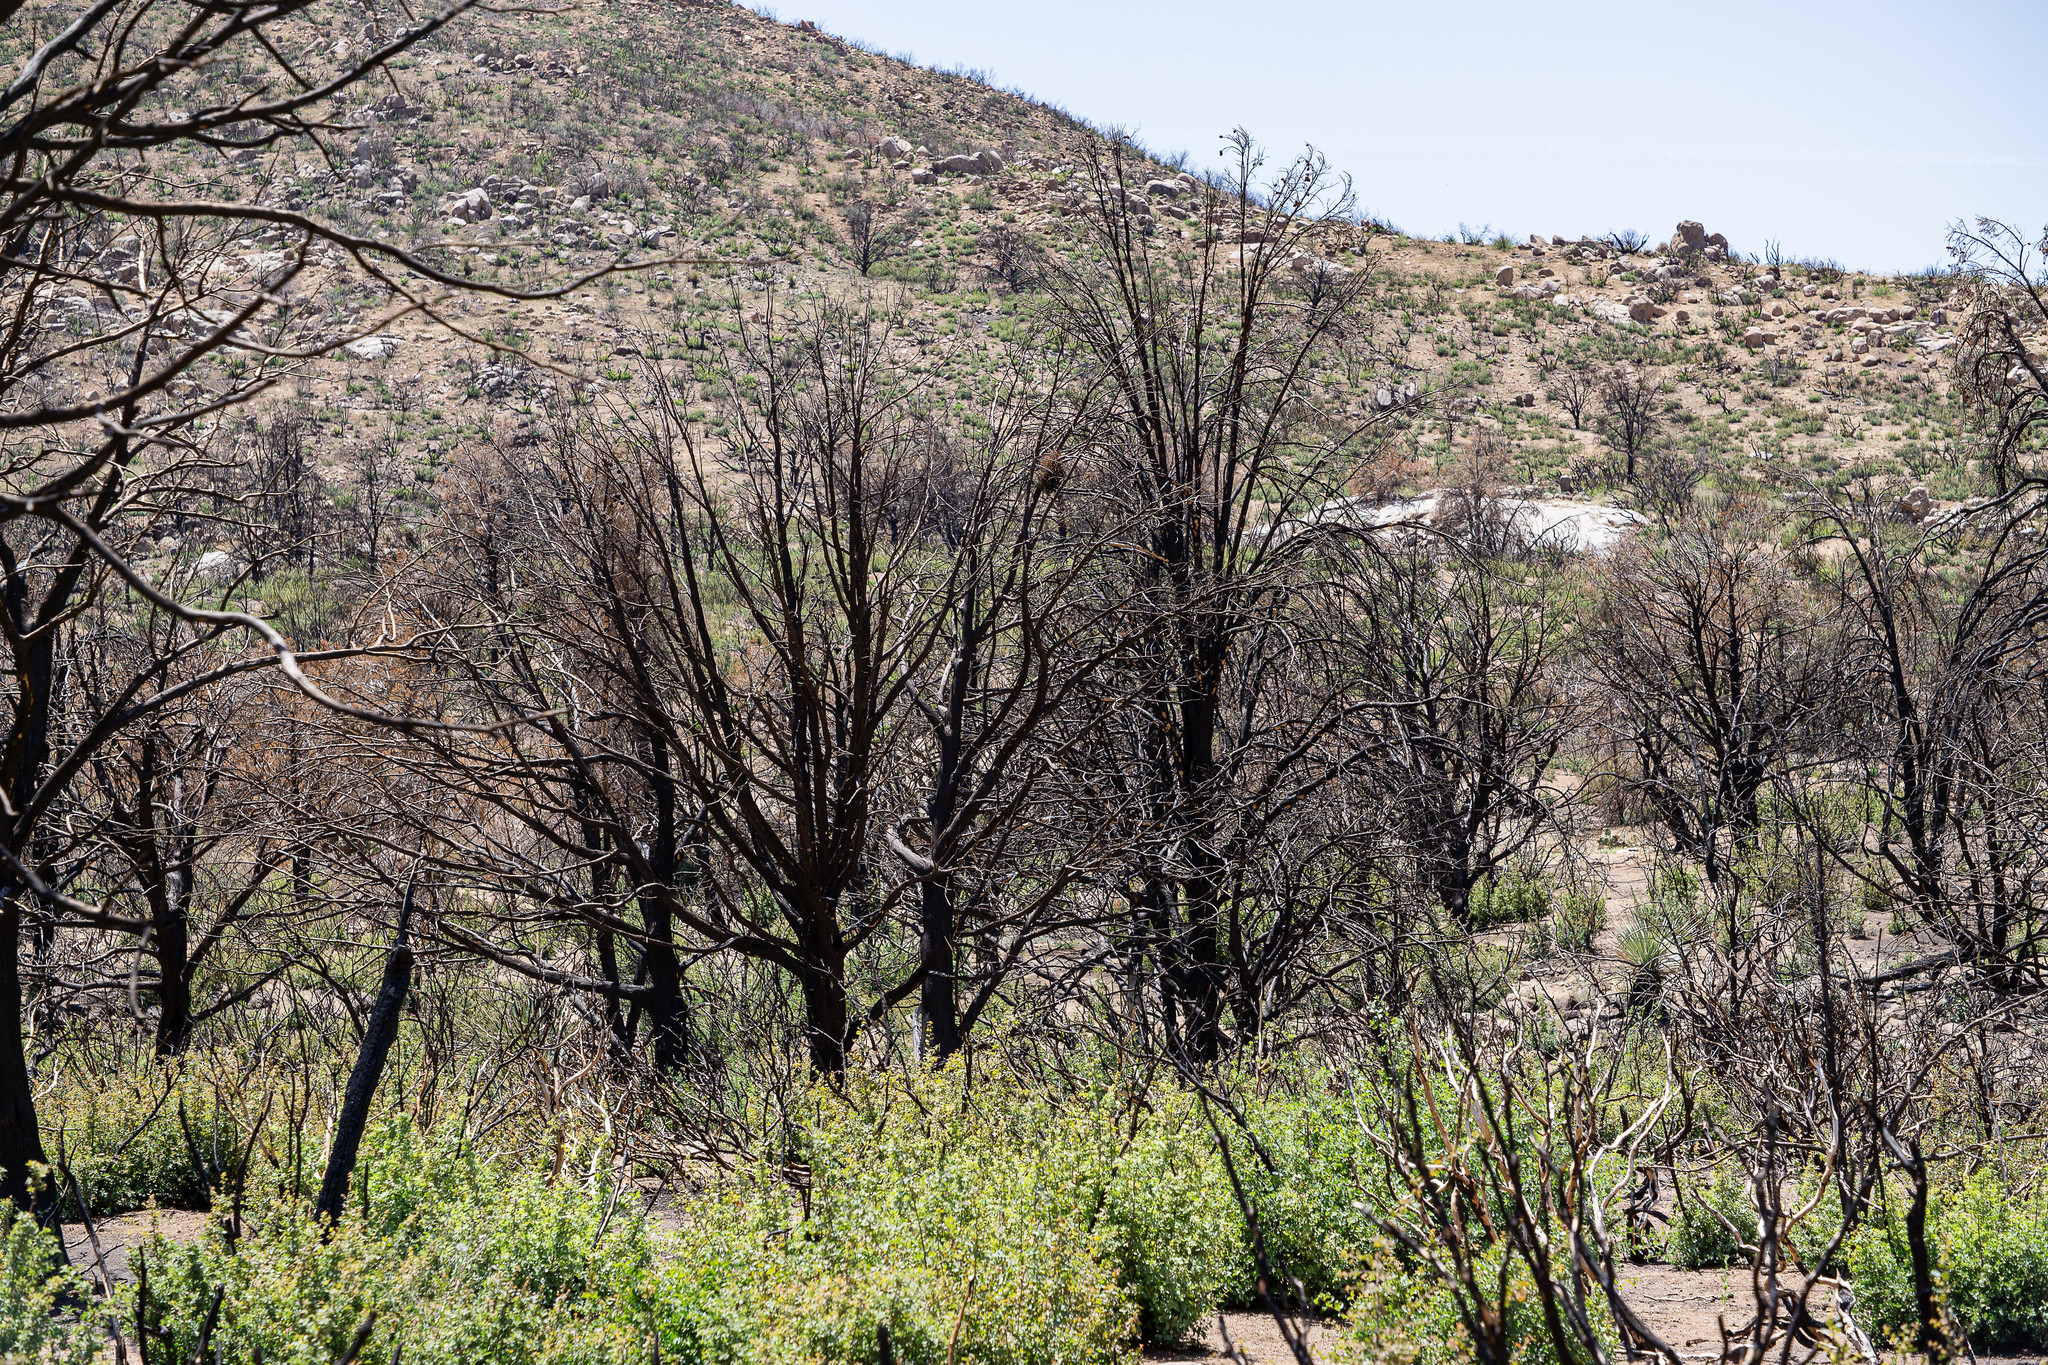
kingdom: Animalia
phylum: Arthropoda
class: Insecta
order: Hymenoptera
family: Formicidae
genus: Camponotus
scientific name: Camponotus sansabeanus
